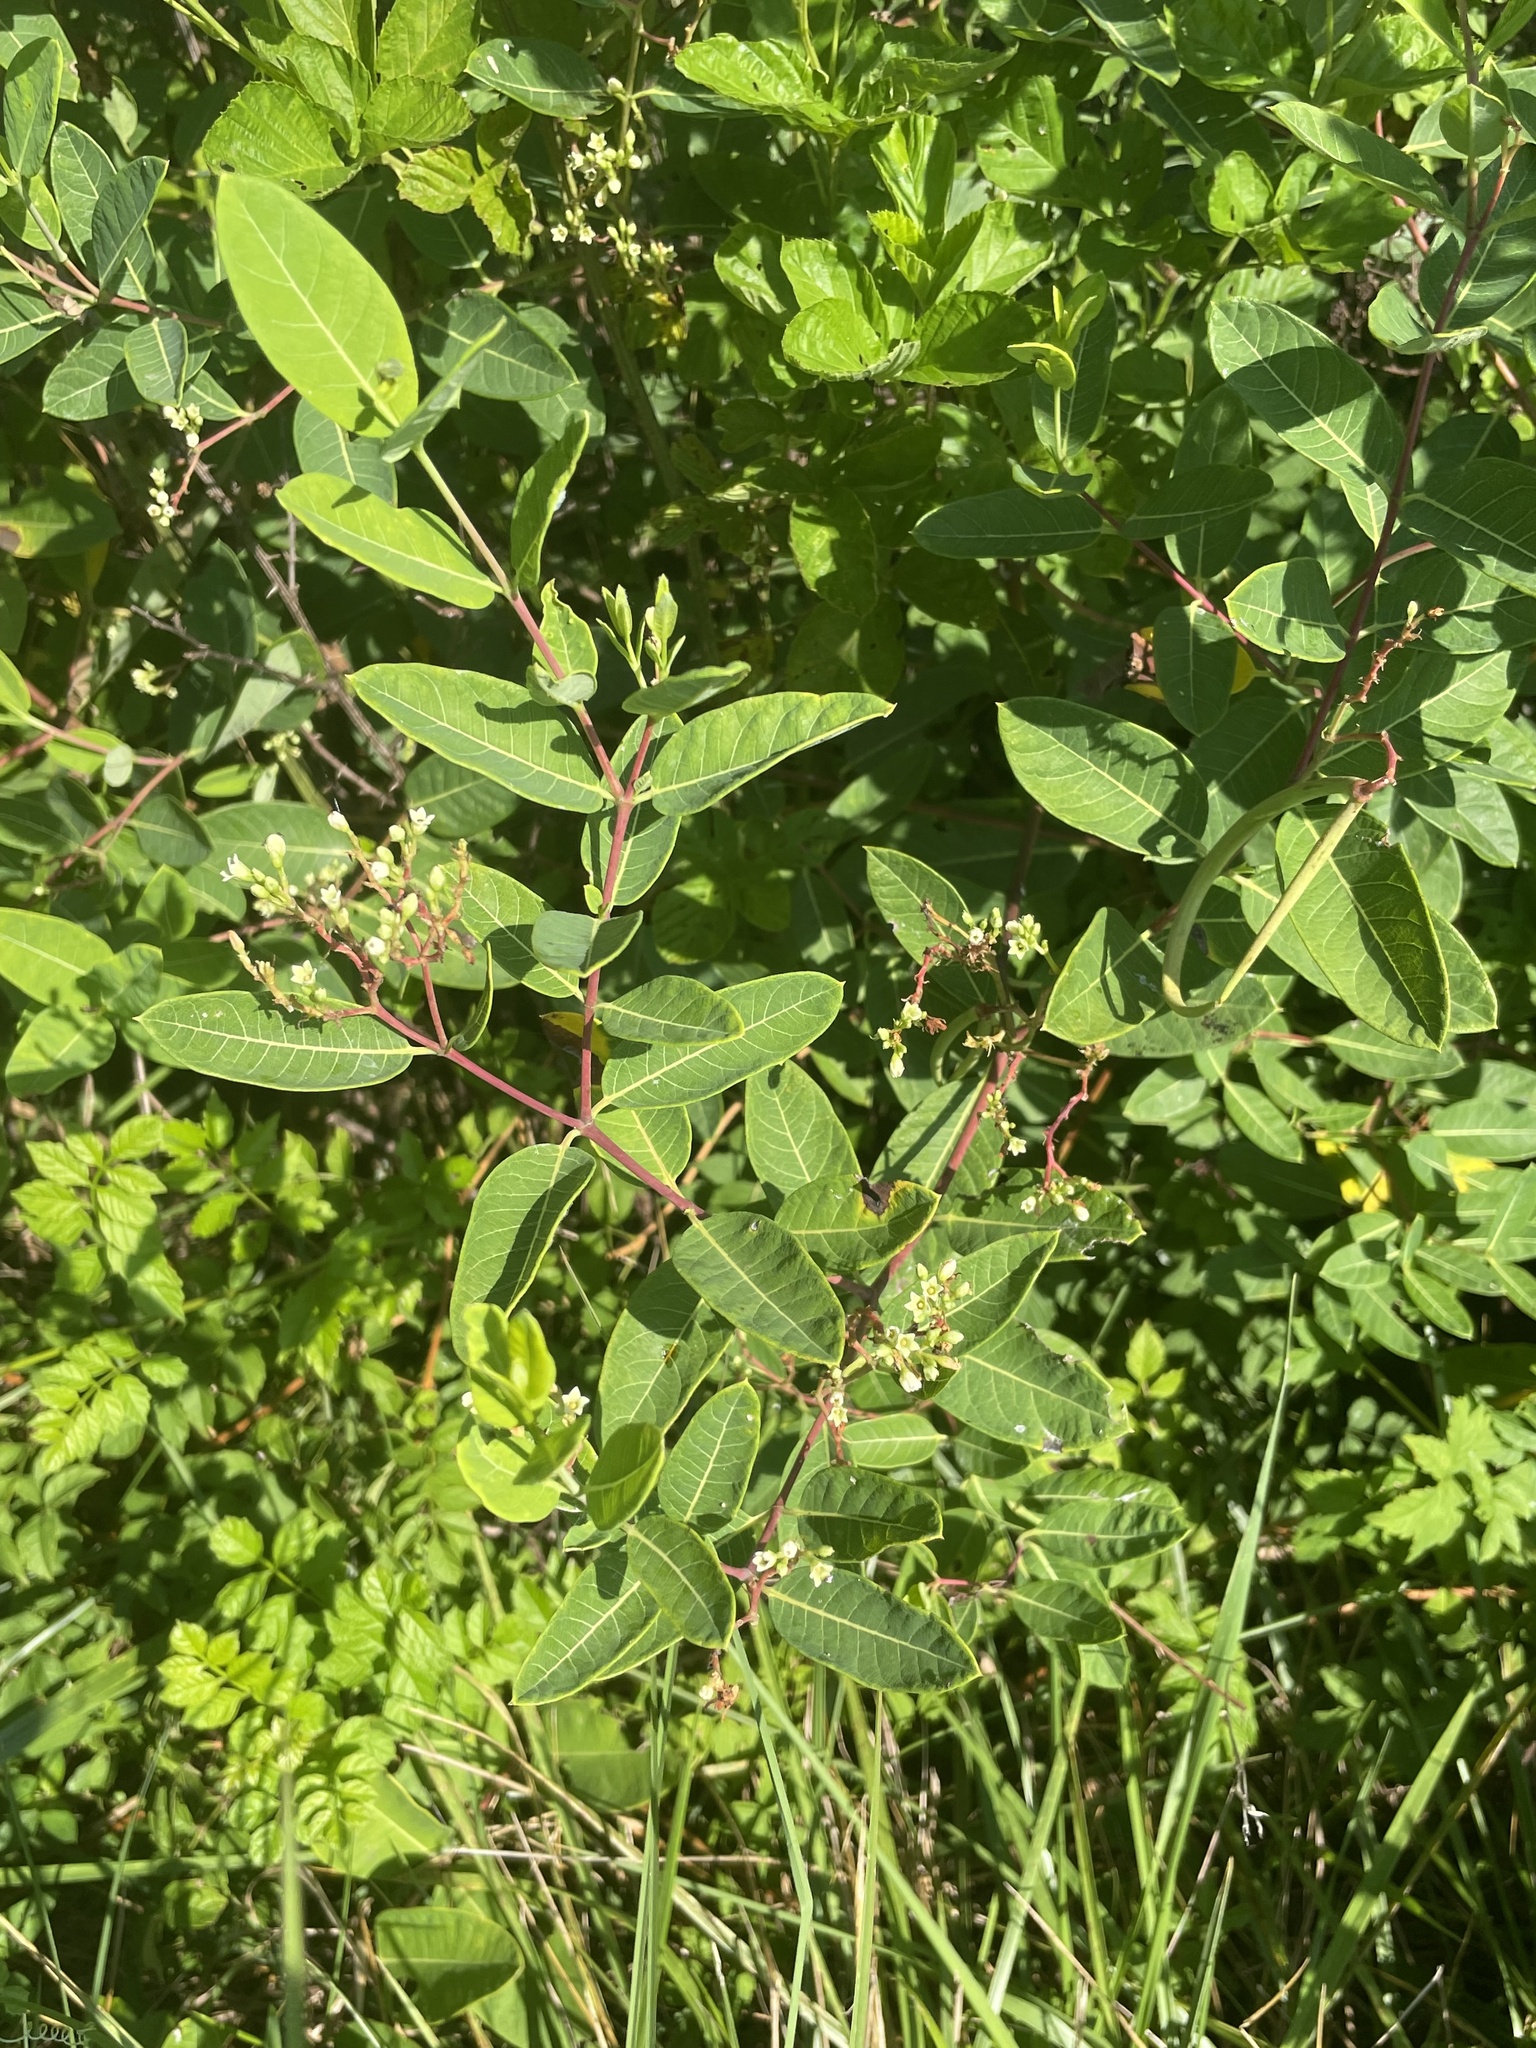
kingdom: Plantae
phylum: Tracheophyta
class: Magnoliopsida
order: Gentianales
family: Apocynaceae
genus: Apocynum
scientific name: Apocynum cannabinum
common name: Hemp dogbane
